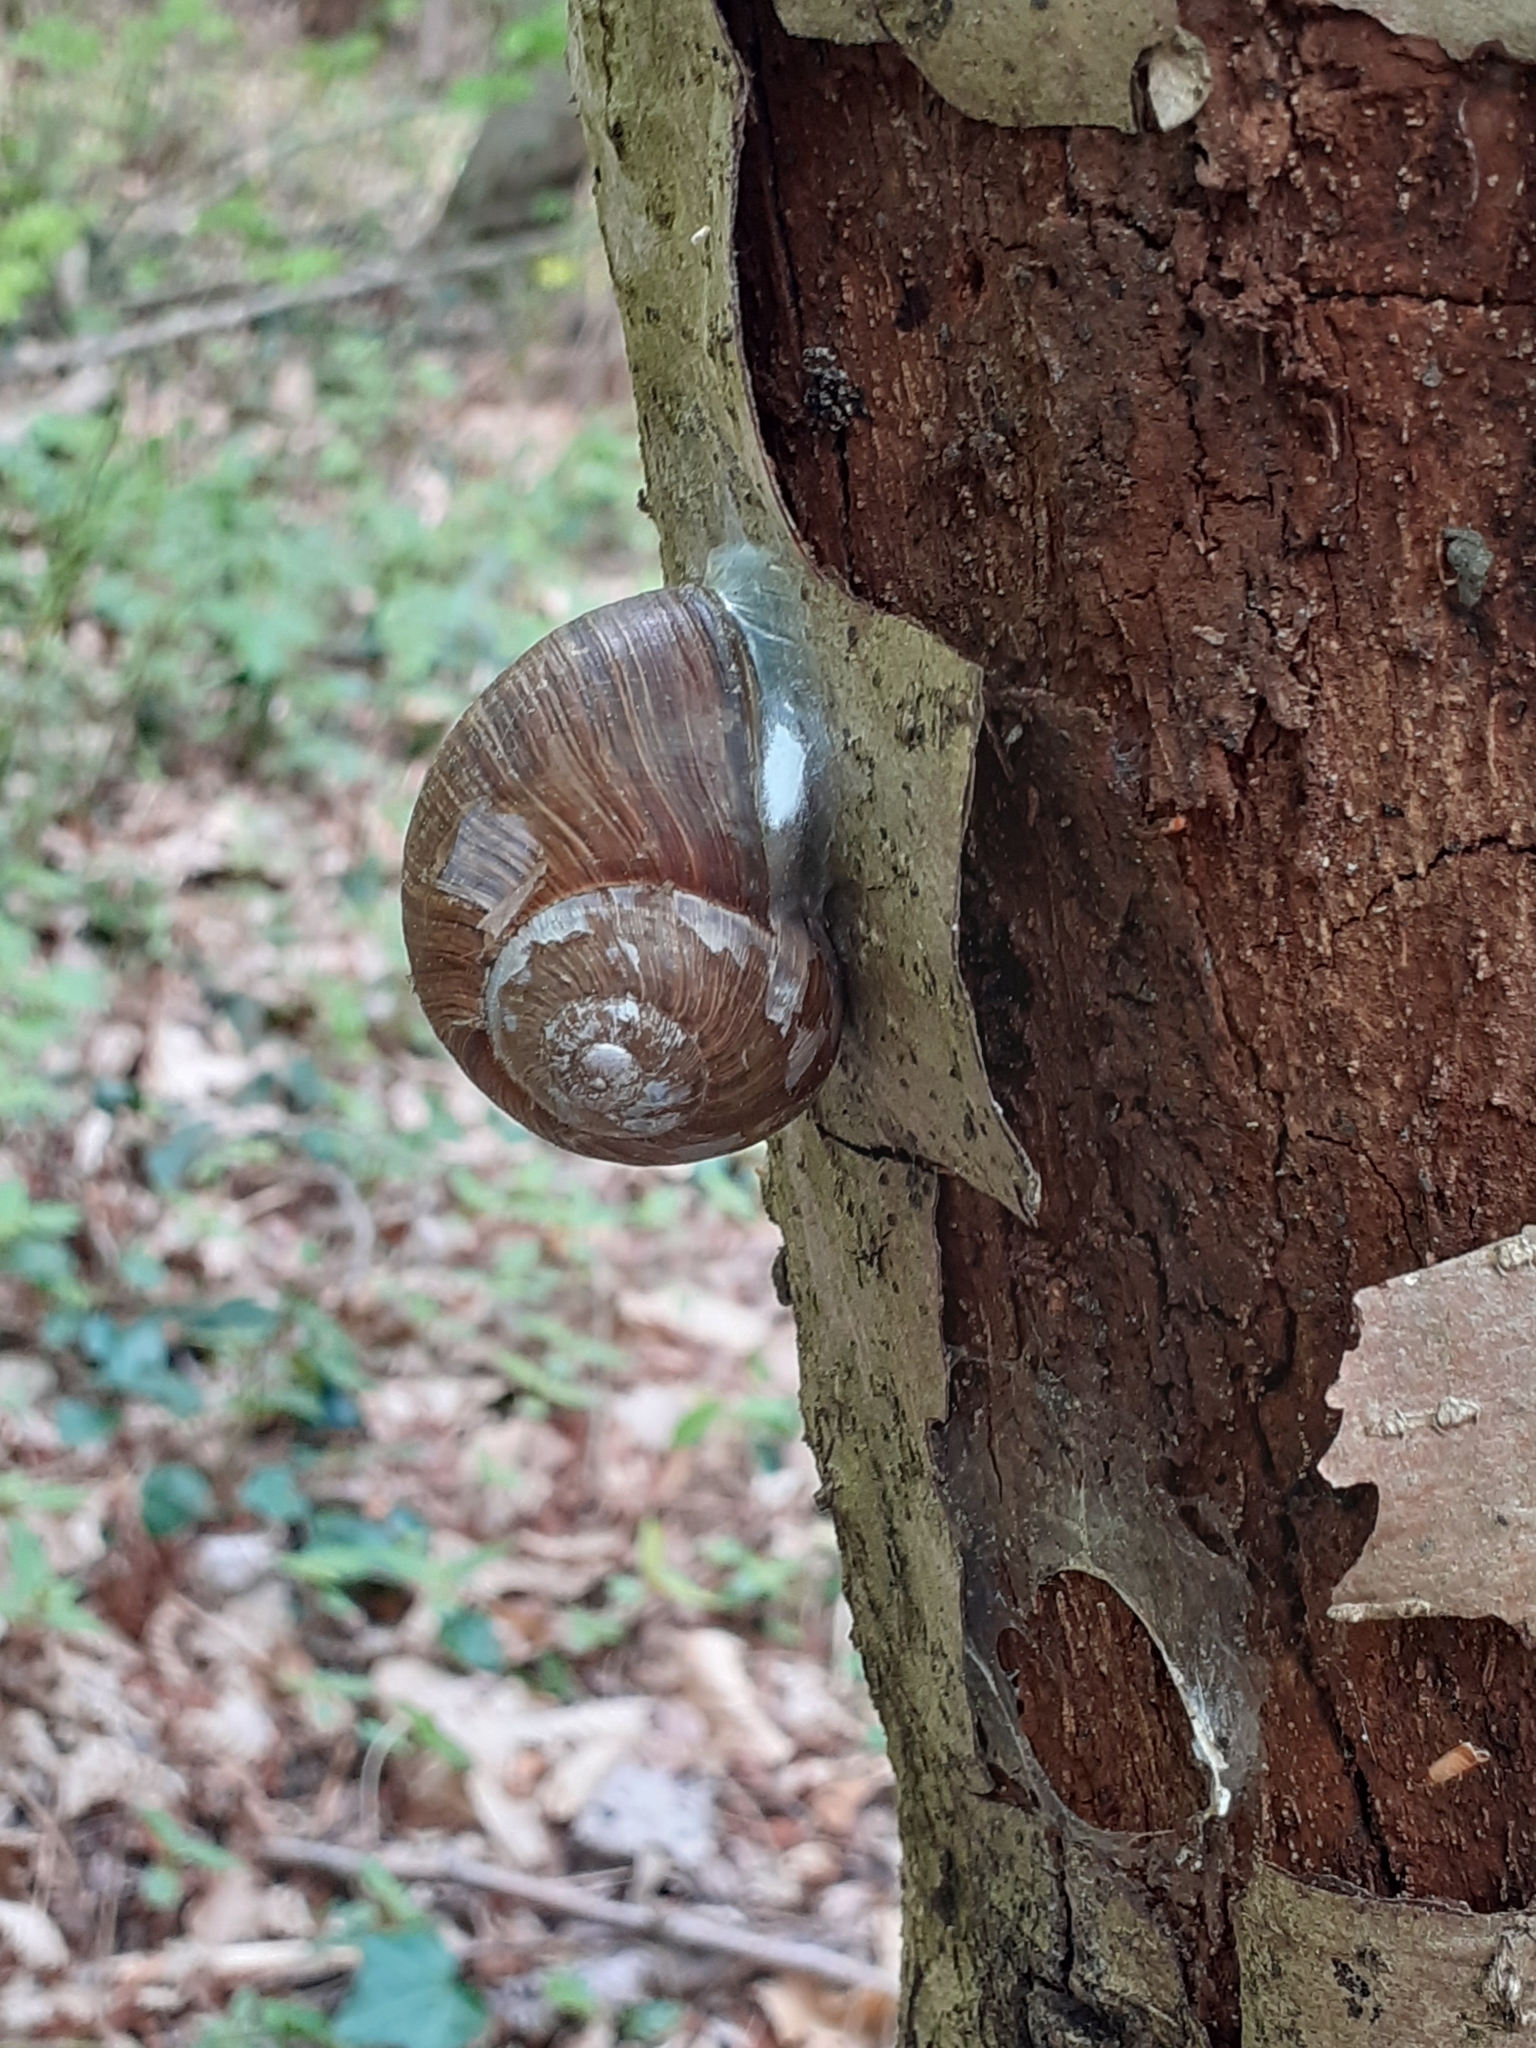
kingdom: Animalia
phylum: Mollusca
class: Gastropoda
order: Stylommatophora
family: Helicidae
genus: Helix
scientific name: Helix pomatia
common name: Roman snail
